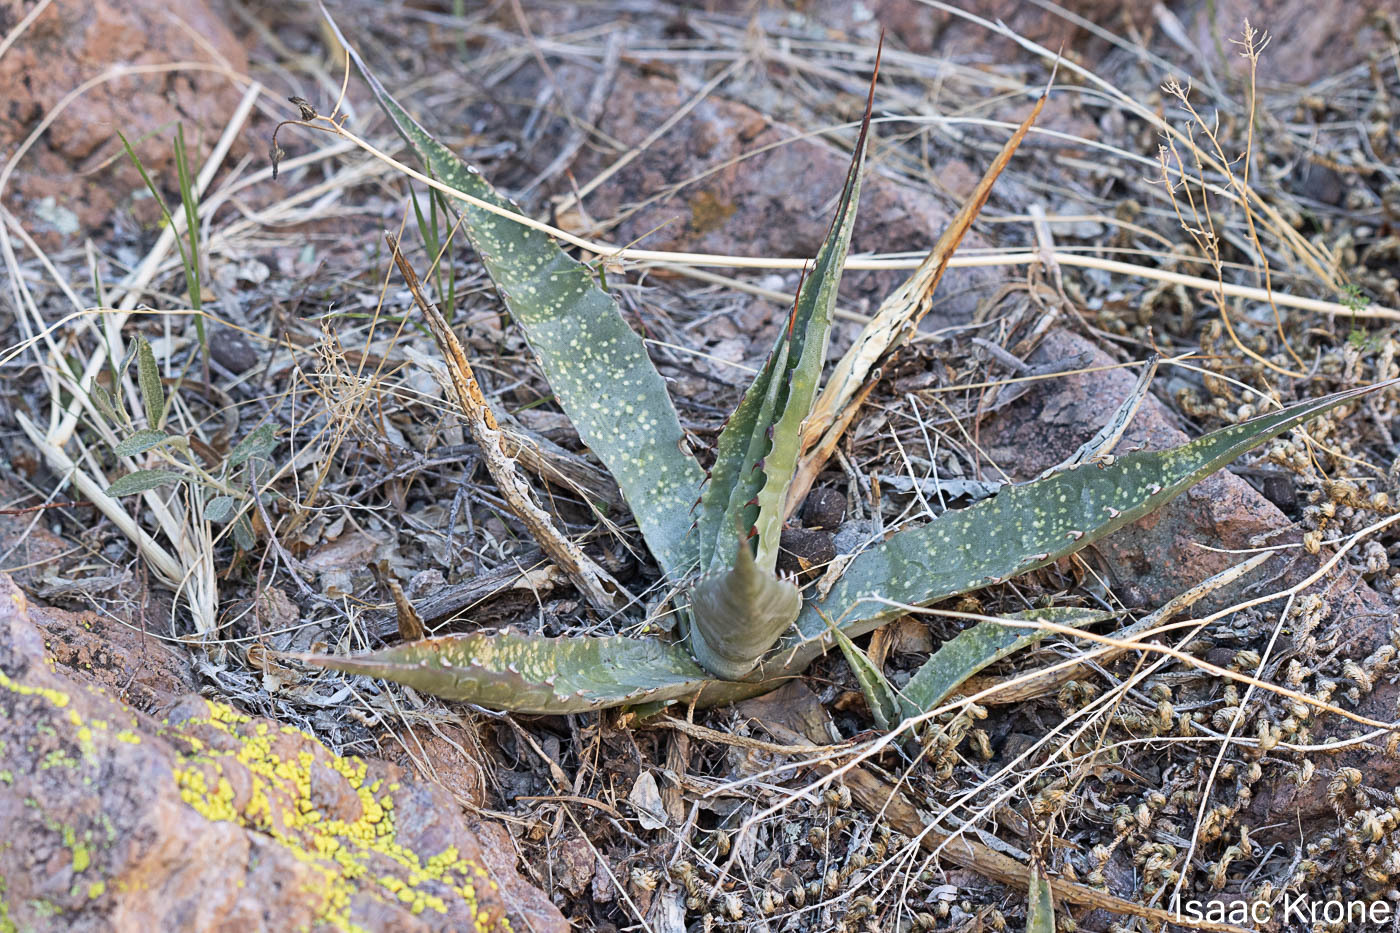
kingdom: Plantae
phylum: Tracheophyta
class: Liliopsida
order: Asparagales
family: Asparagaceae
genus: Agave
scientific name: Agave simplex
